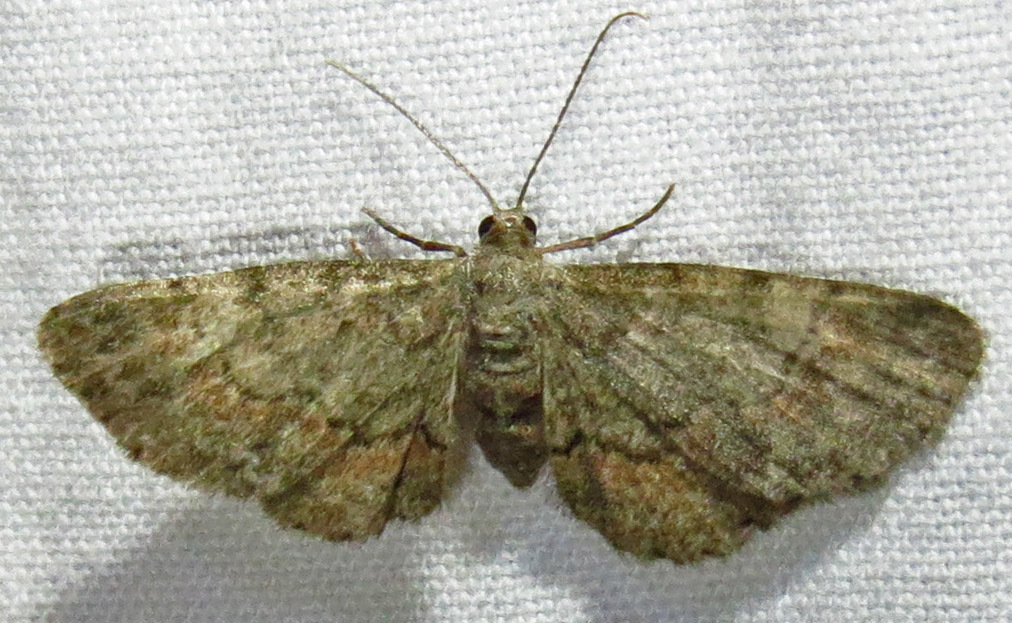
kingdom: Animalia
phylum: Arthropoda
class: Insecta
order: Lepidoptera
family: Geometridae
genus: Glenoides
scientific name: Glenoides texanaria
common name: Texas gray
